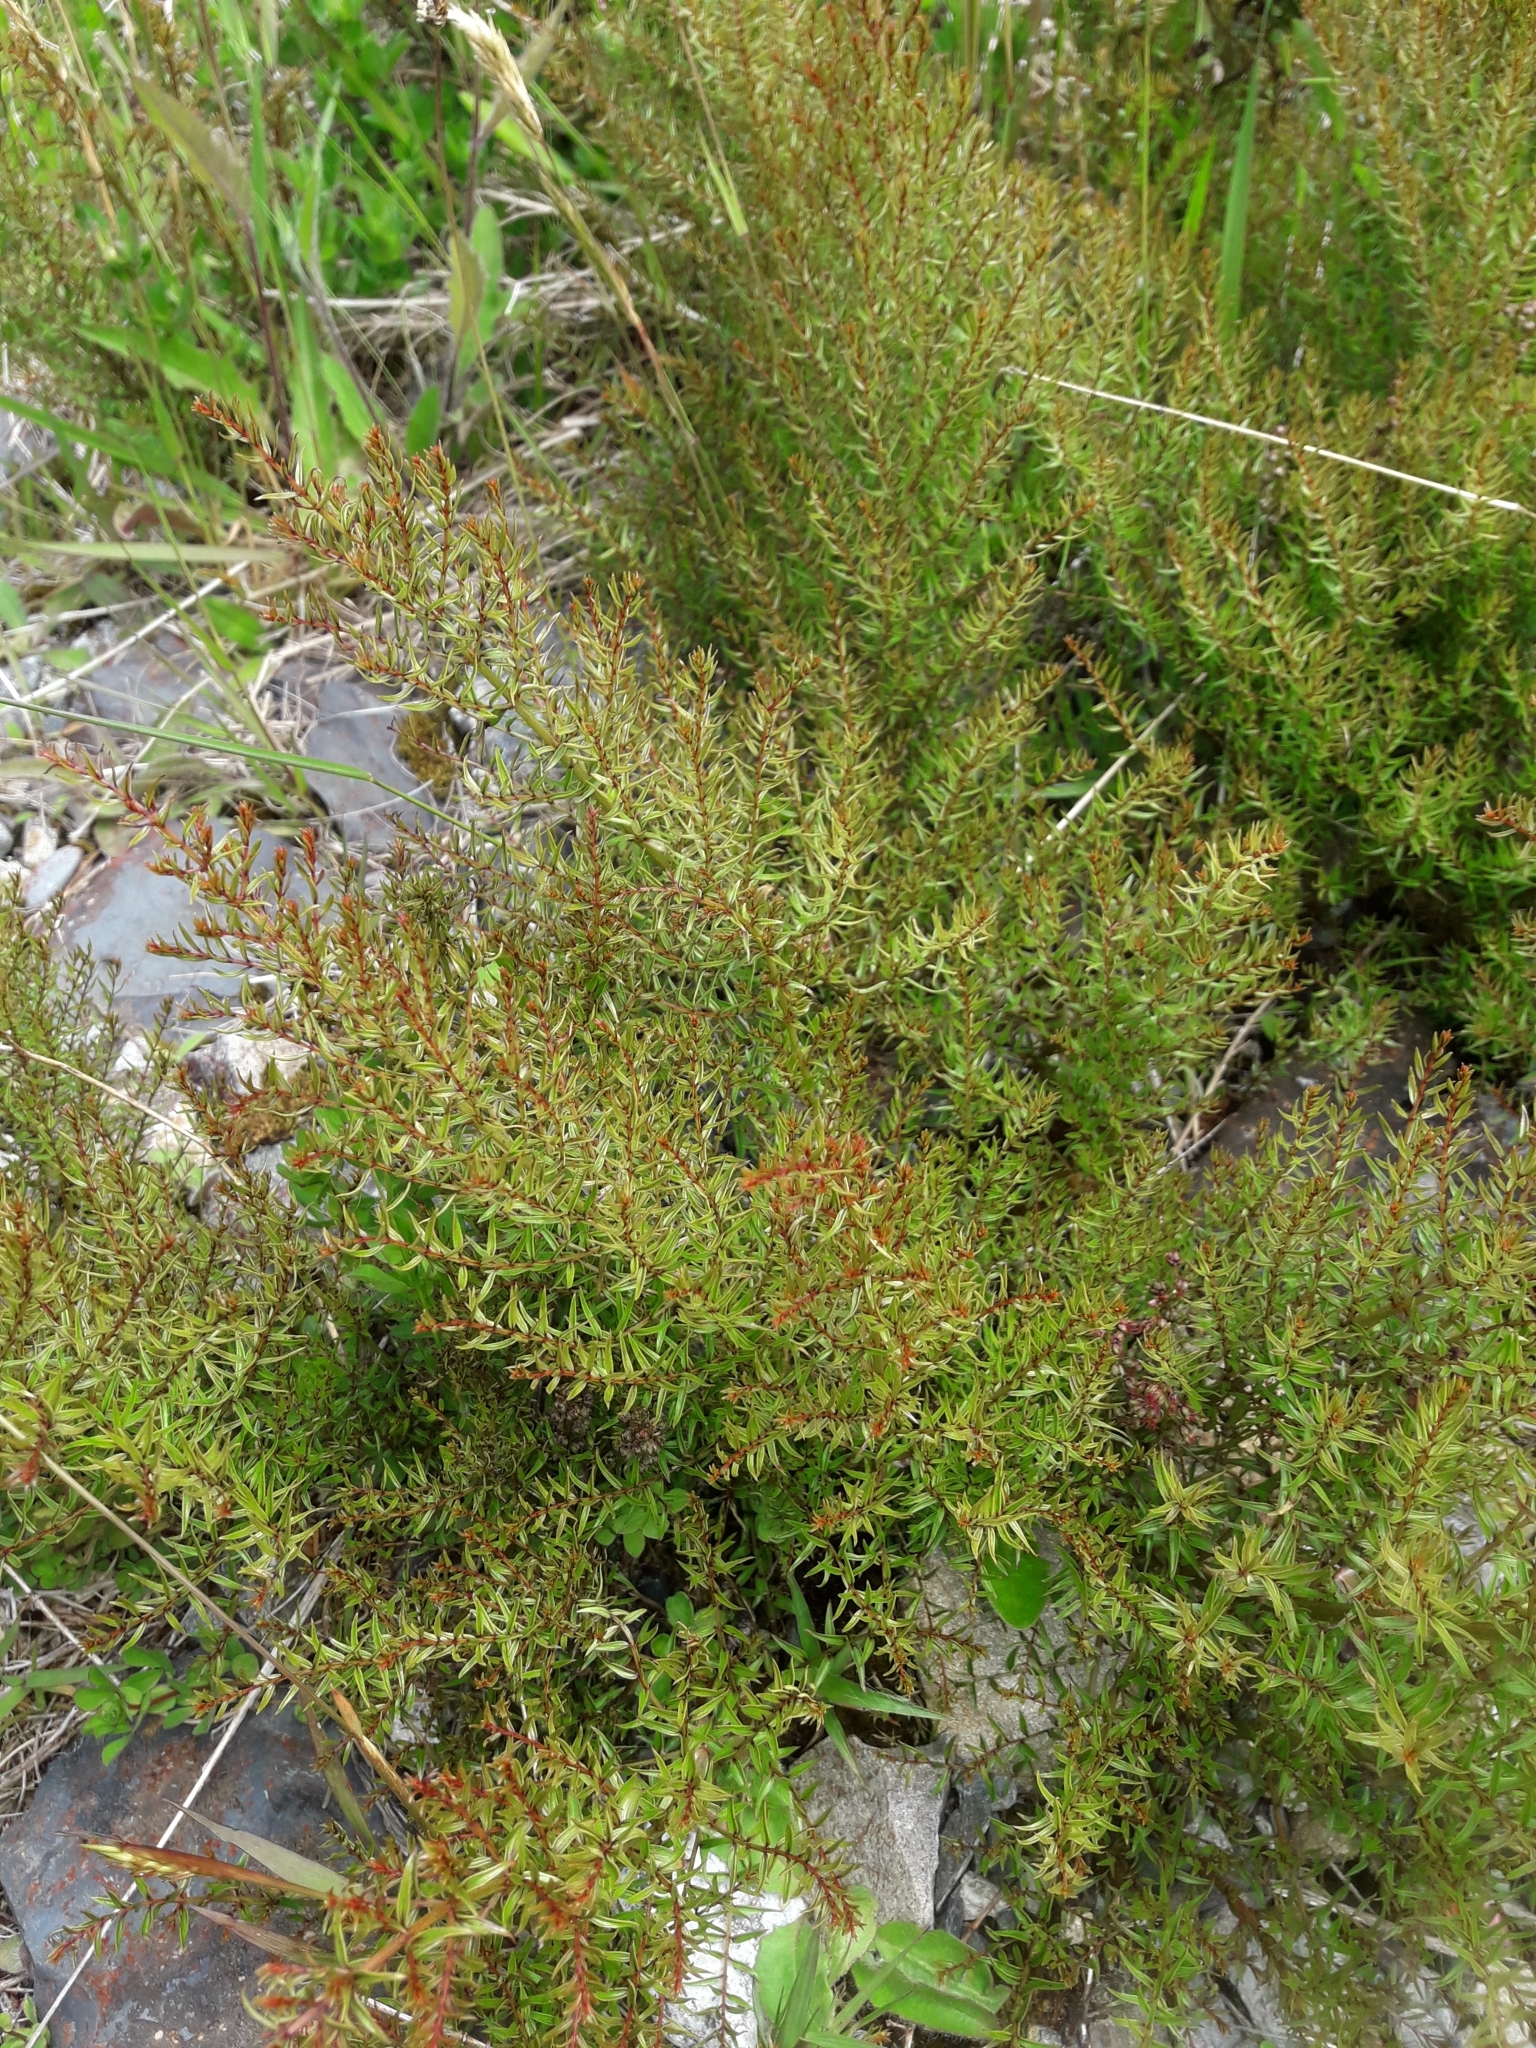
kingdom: Plantae
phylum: Tracheophyta
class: Magnoliopsida
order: Cucurbitales
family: Coriariaceae
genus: Coriaria
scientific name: Coriaria angustissima
